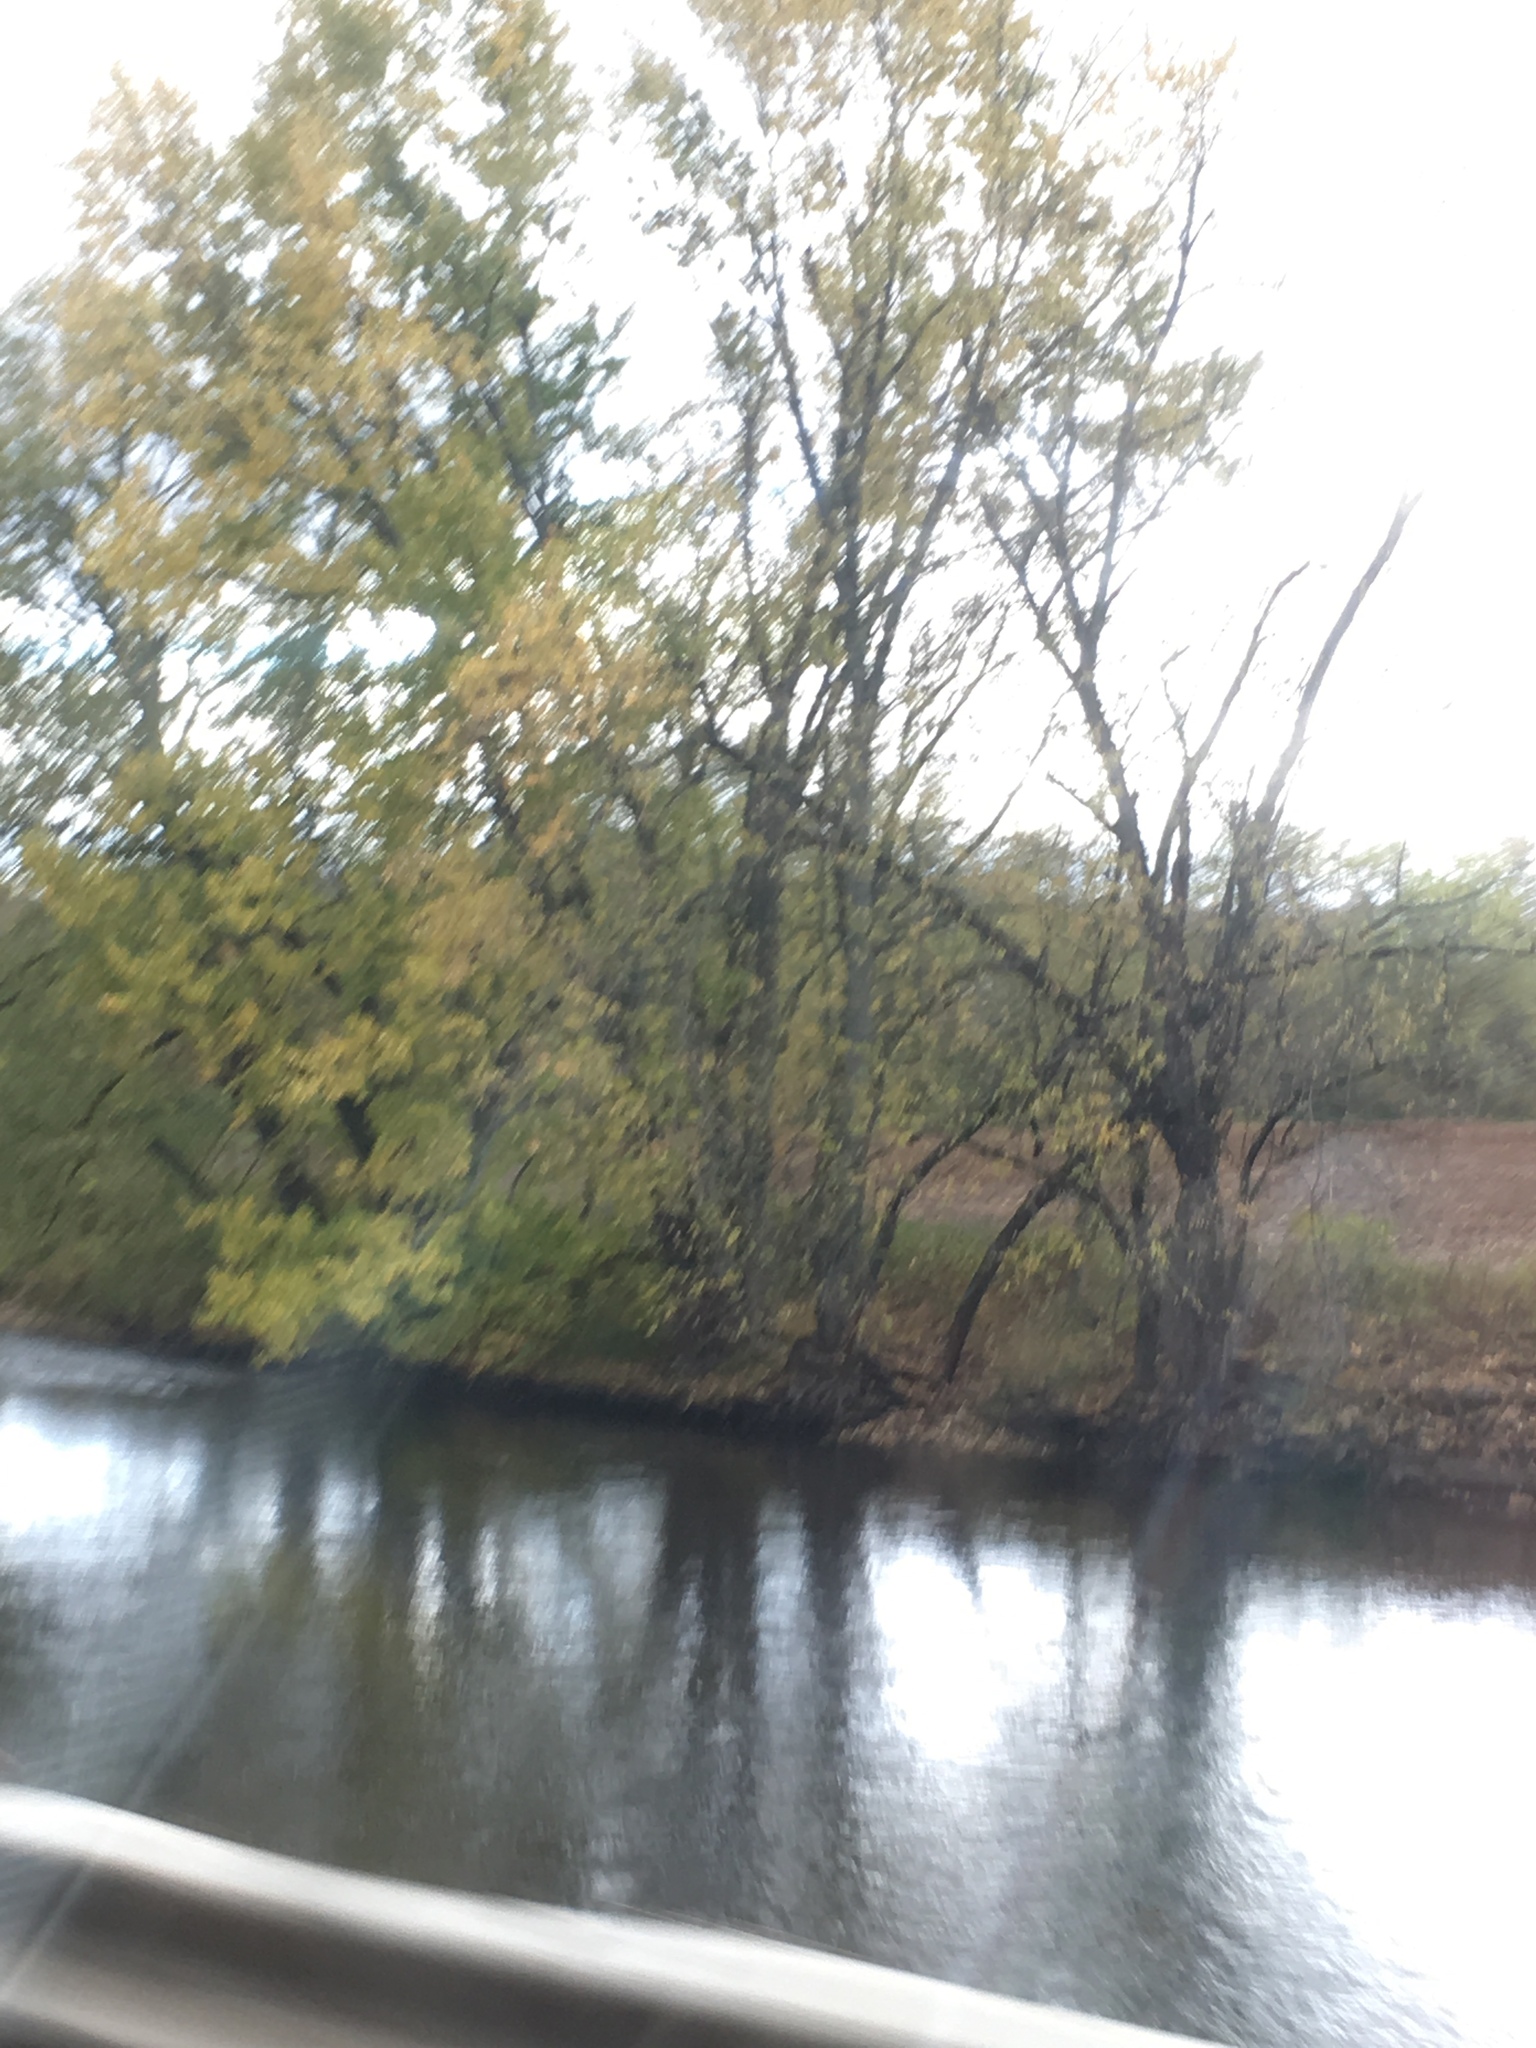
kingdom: Plantae
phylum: Tracheophyta
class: Magnoliopsida
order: Sapindales
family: Sapindaceae
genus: Acer
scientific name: Acer saccharinum
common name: Silver maple
